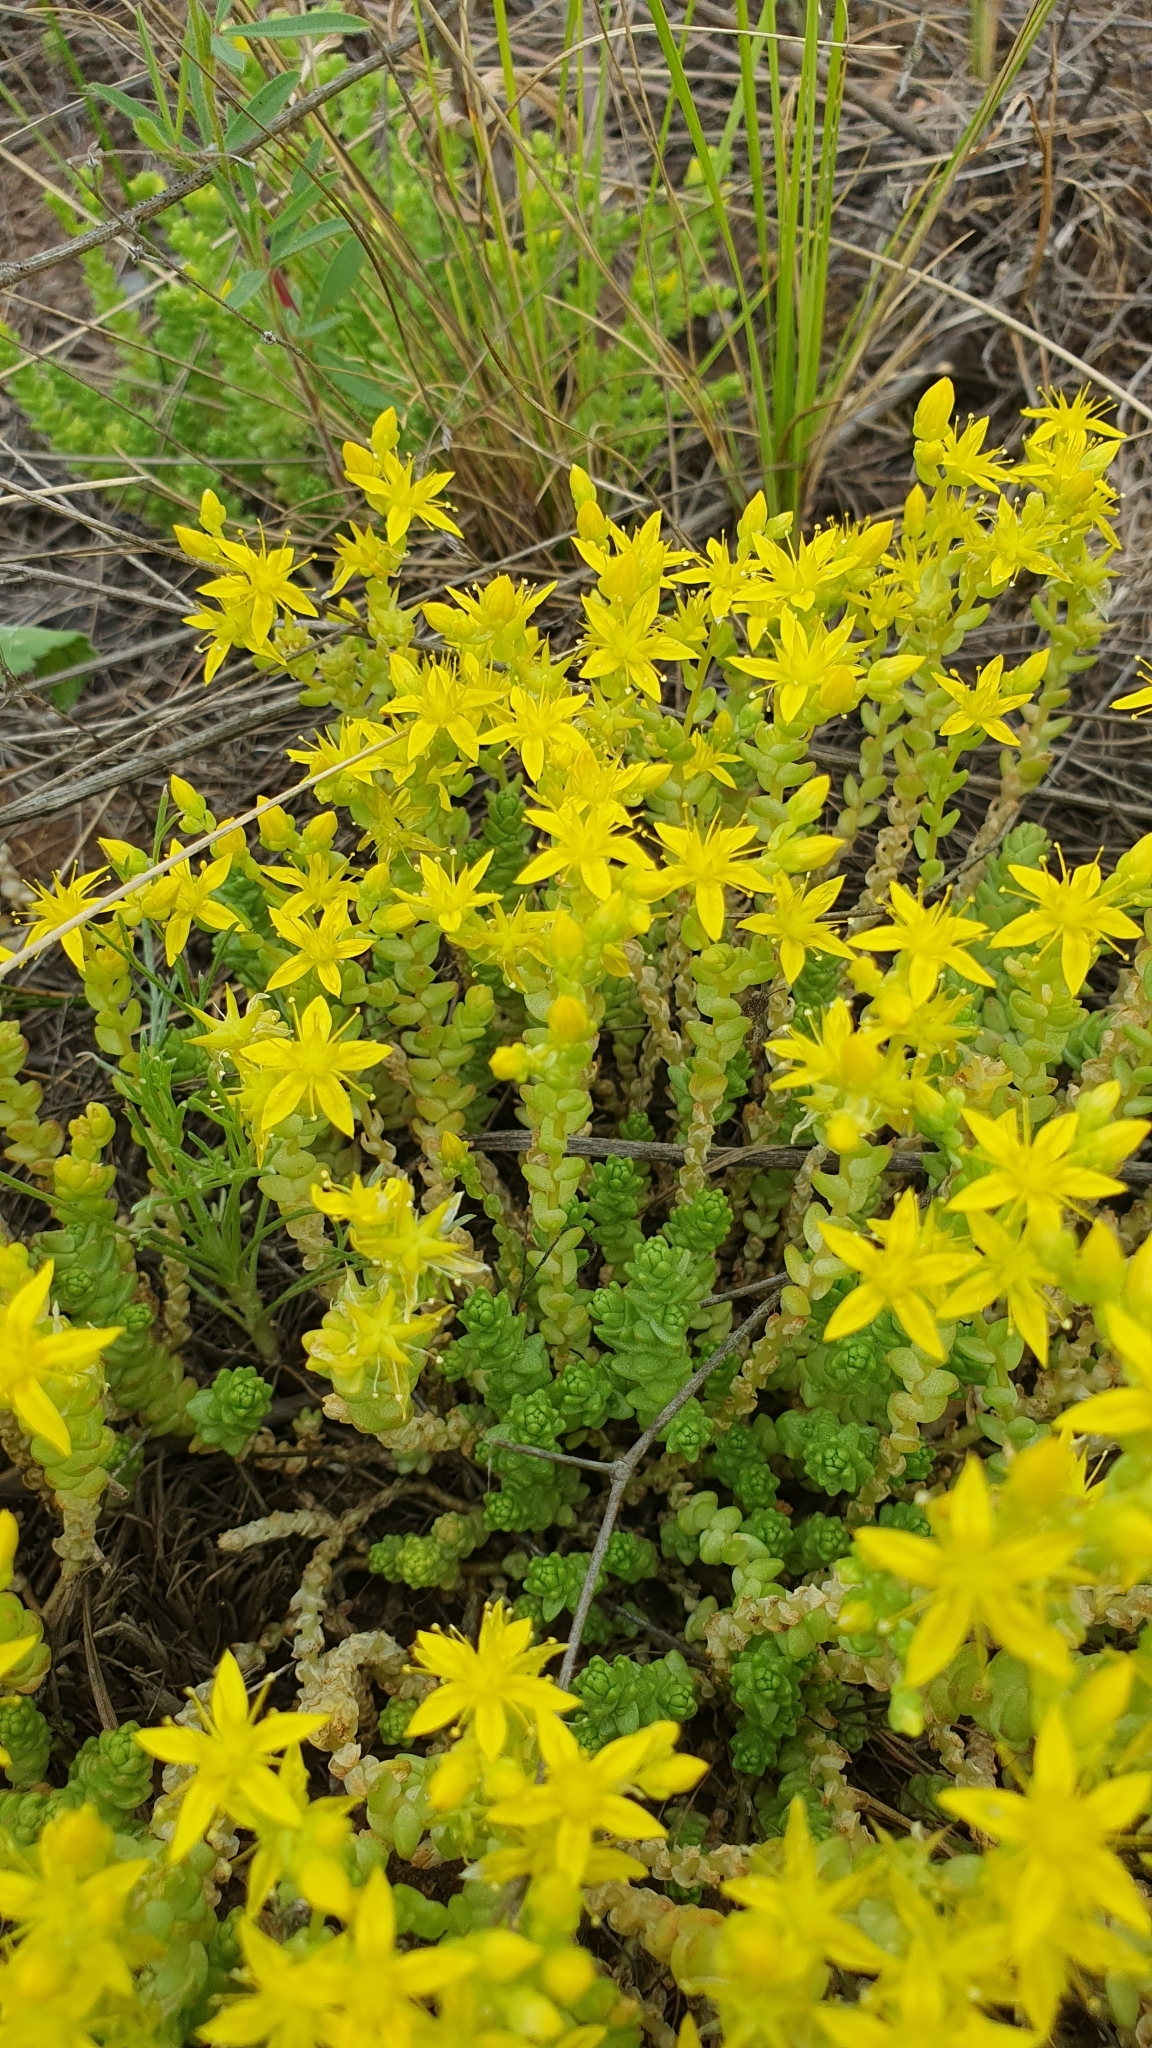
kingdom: Plantae
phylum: Tracheophyta
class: Magnoliopsida
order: Saxifragales
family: Crassulaceae
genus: Sedum
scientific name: Sedum acre
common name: Biting stonecrop
